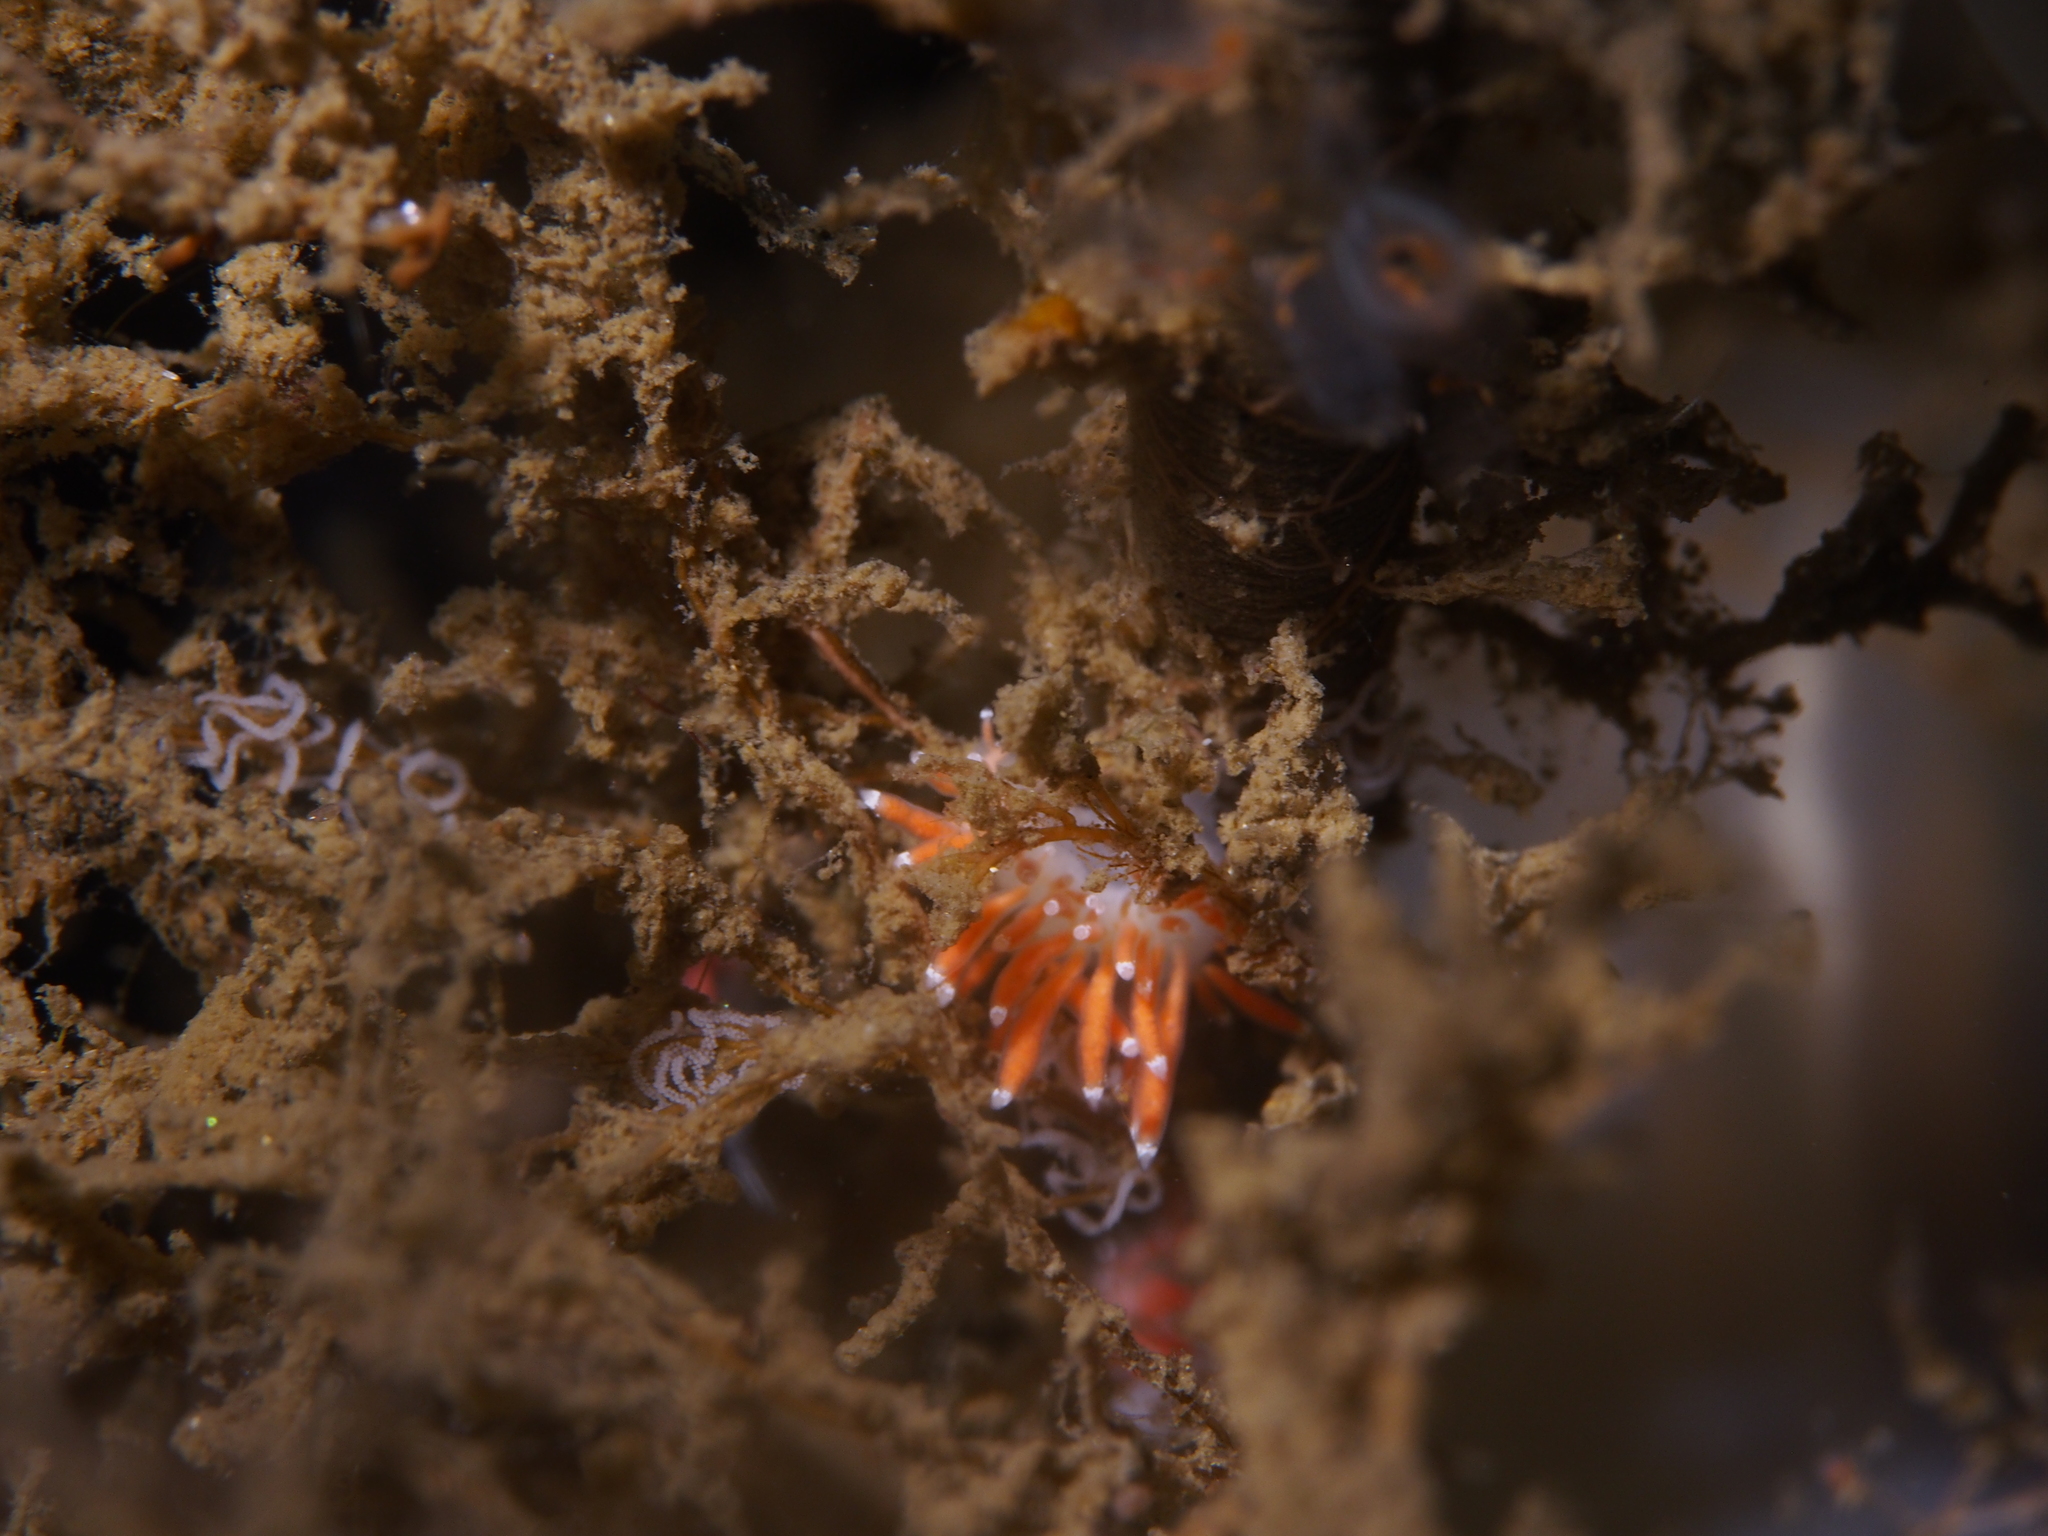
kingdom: Animalia
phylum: Mollusca
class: Gastropoda
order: Nudibranchia
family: Coryphellidae
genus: Coryphella
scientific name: Coryphella gracilis
